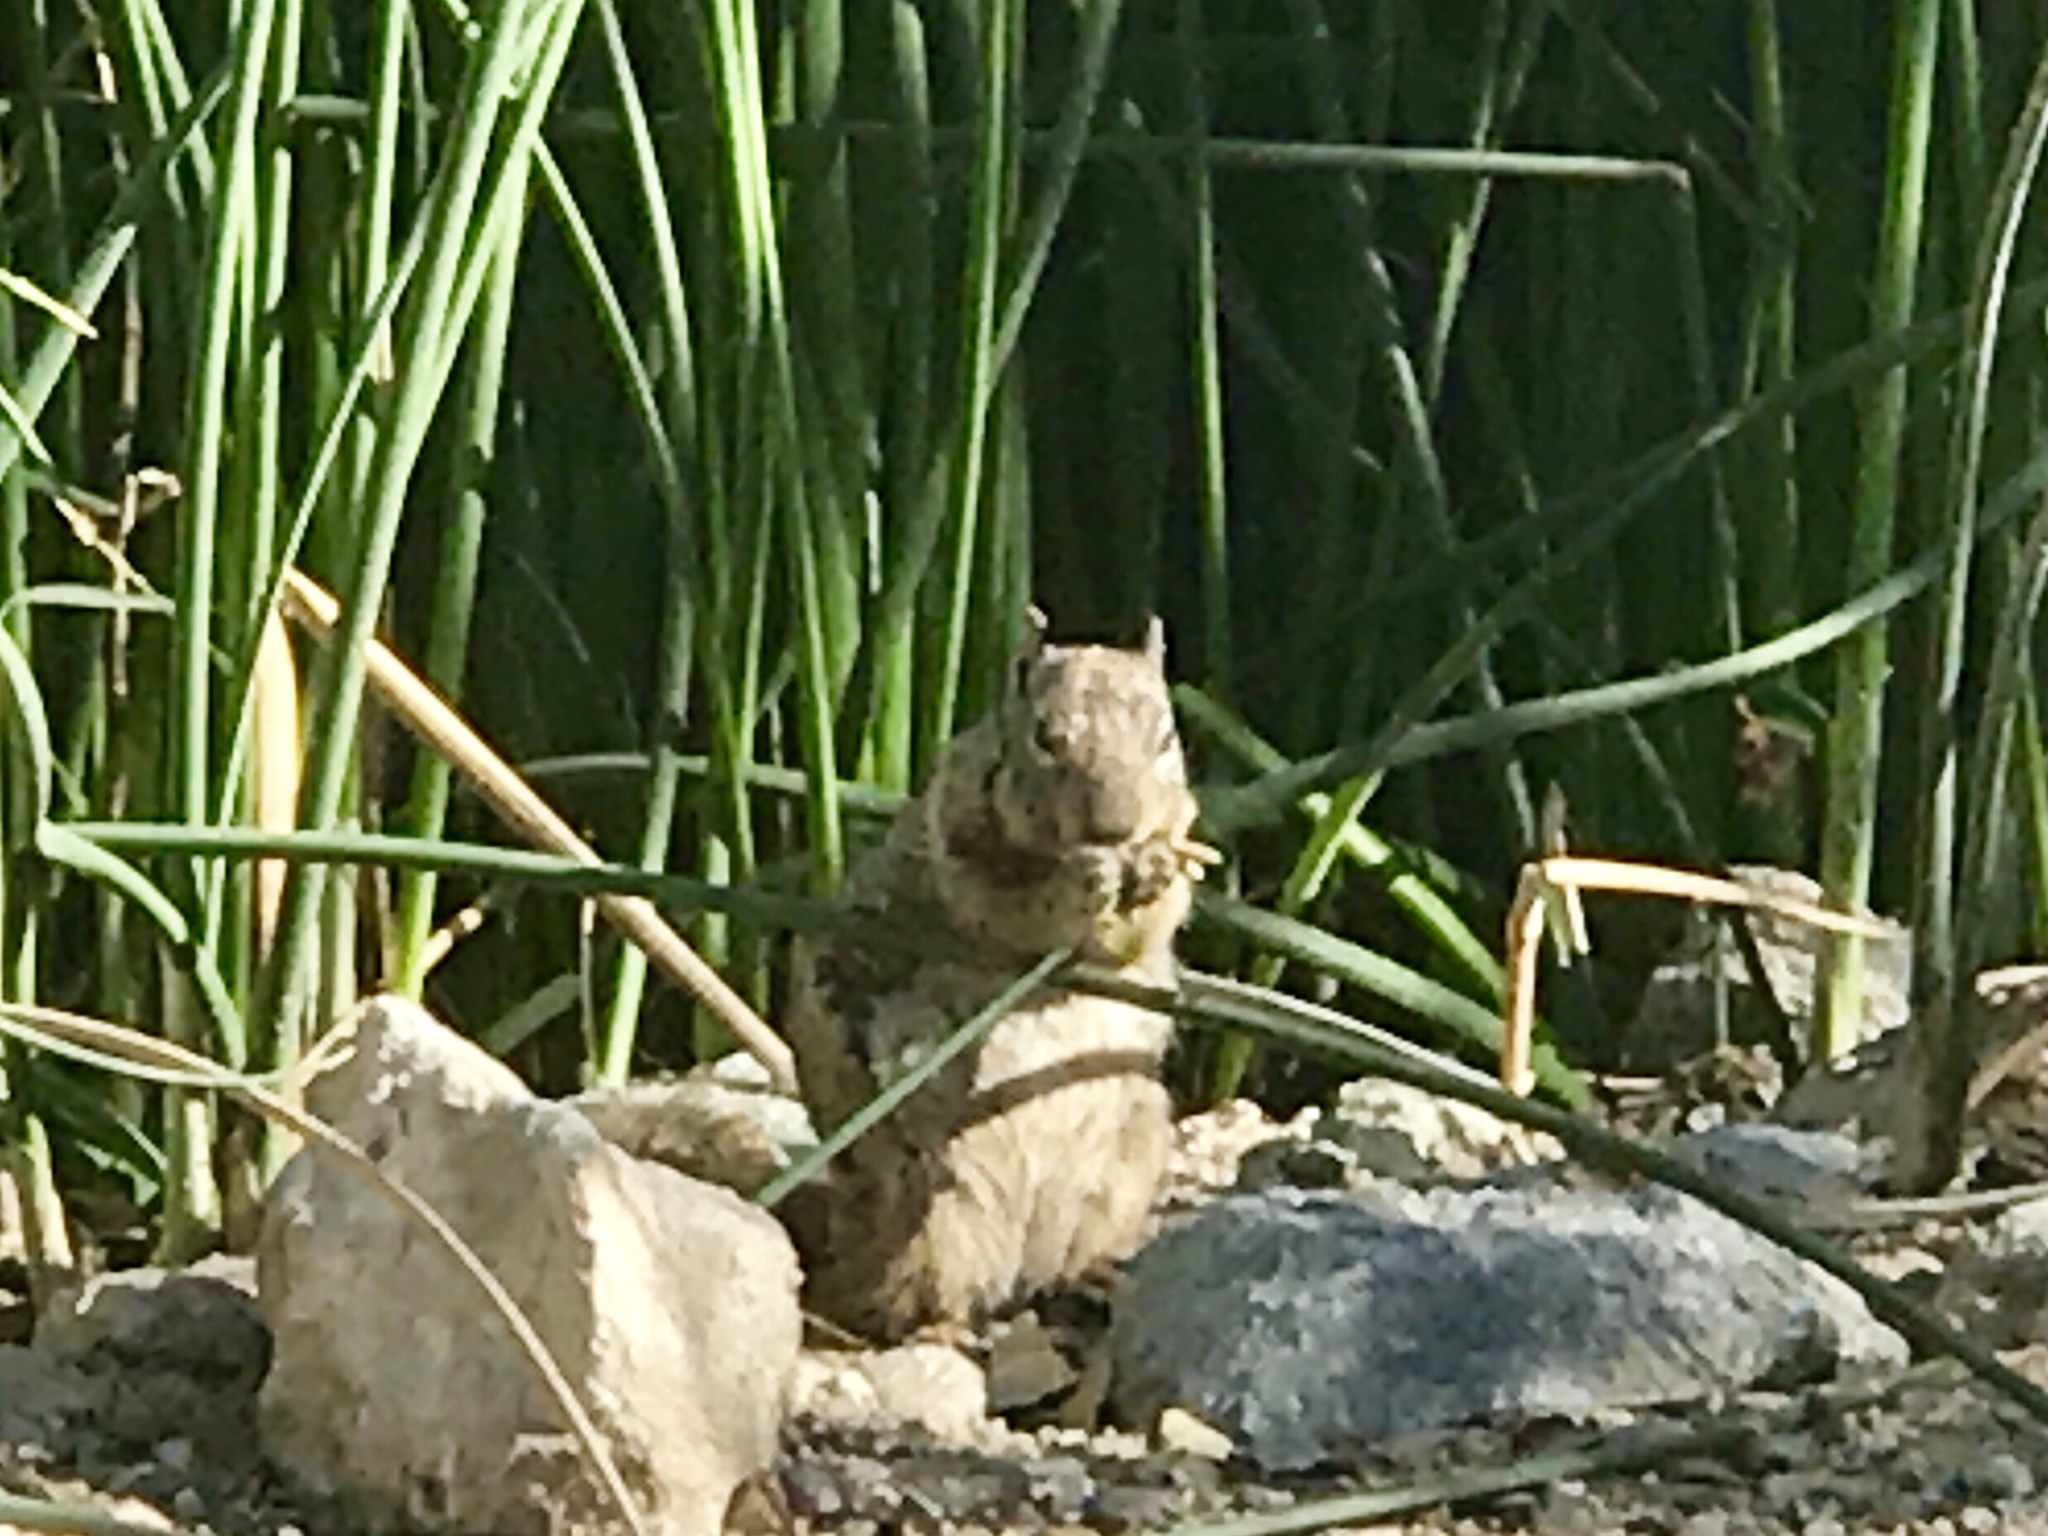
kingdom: Animalia
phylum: Chordata
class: Mammalia
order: Rodentia
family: Sciuridae
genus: Otospermophilus
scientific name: Otospermophilus variegatus
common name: Rock squirrel
